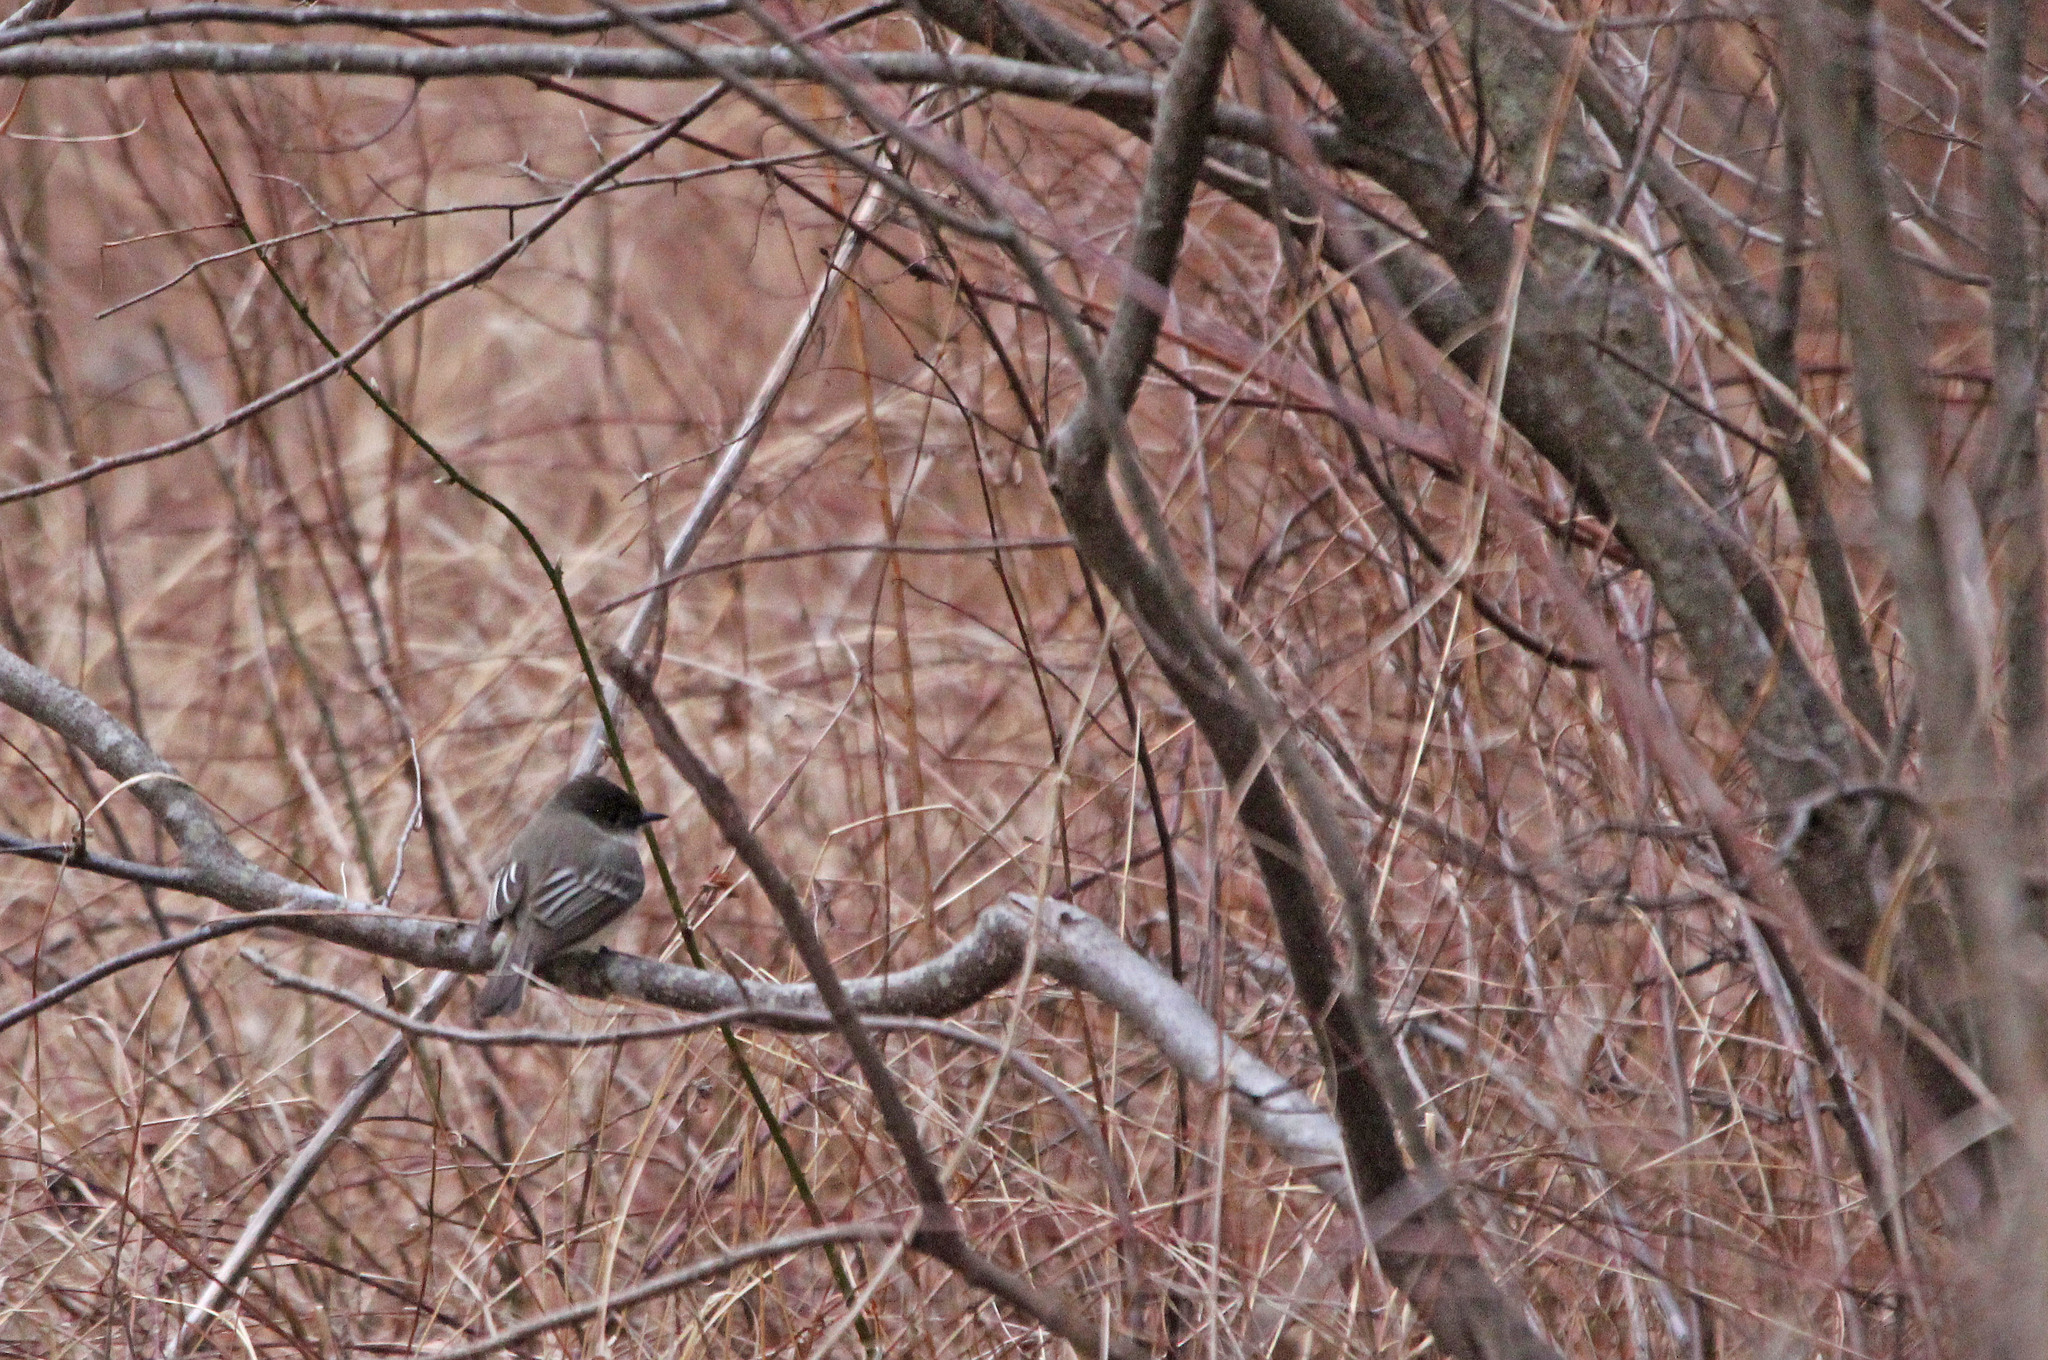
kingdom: Animalia
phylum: Chordata
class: Aves
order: Passeriformes
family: Tyrannidae
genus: Sayornis
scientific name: Sayornis phoebe
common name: Eastern phoebe
